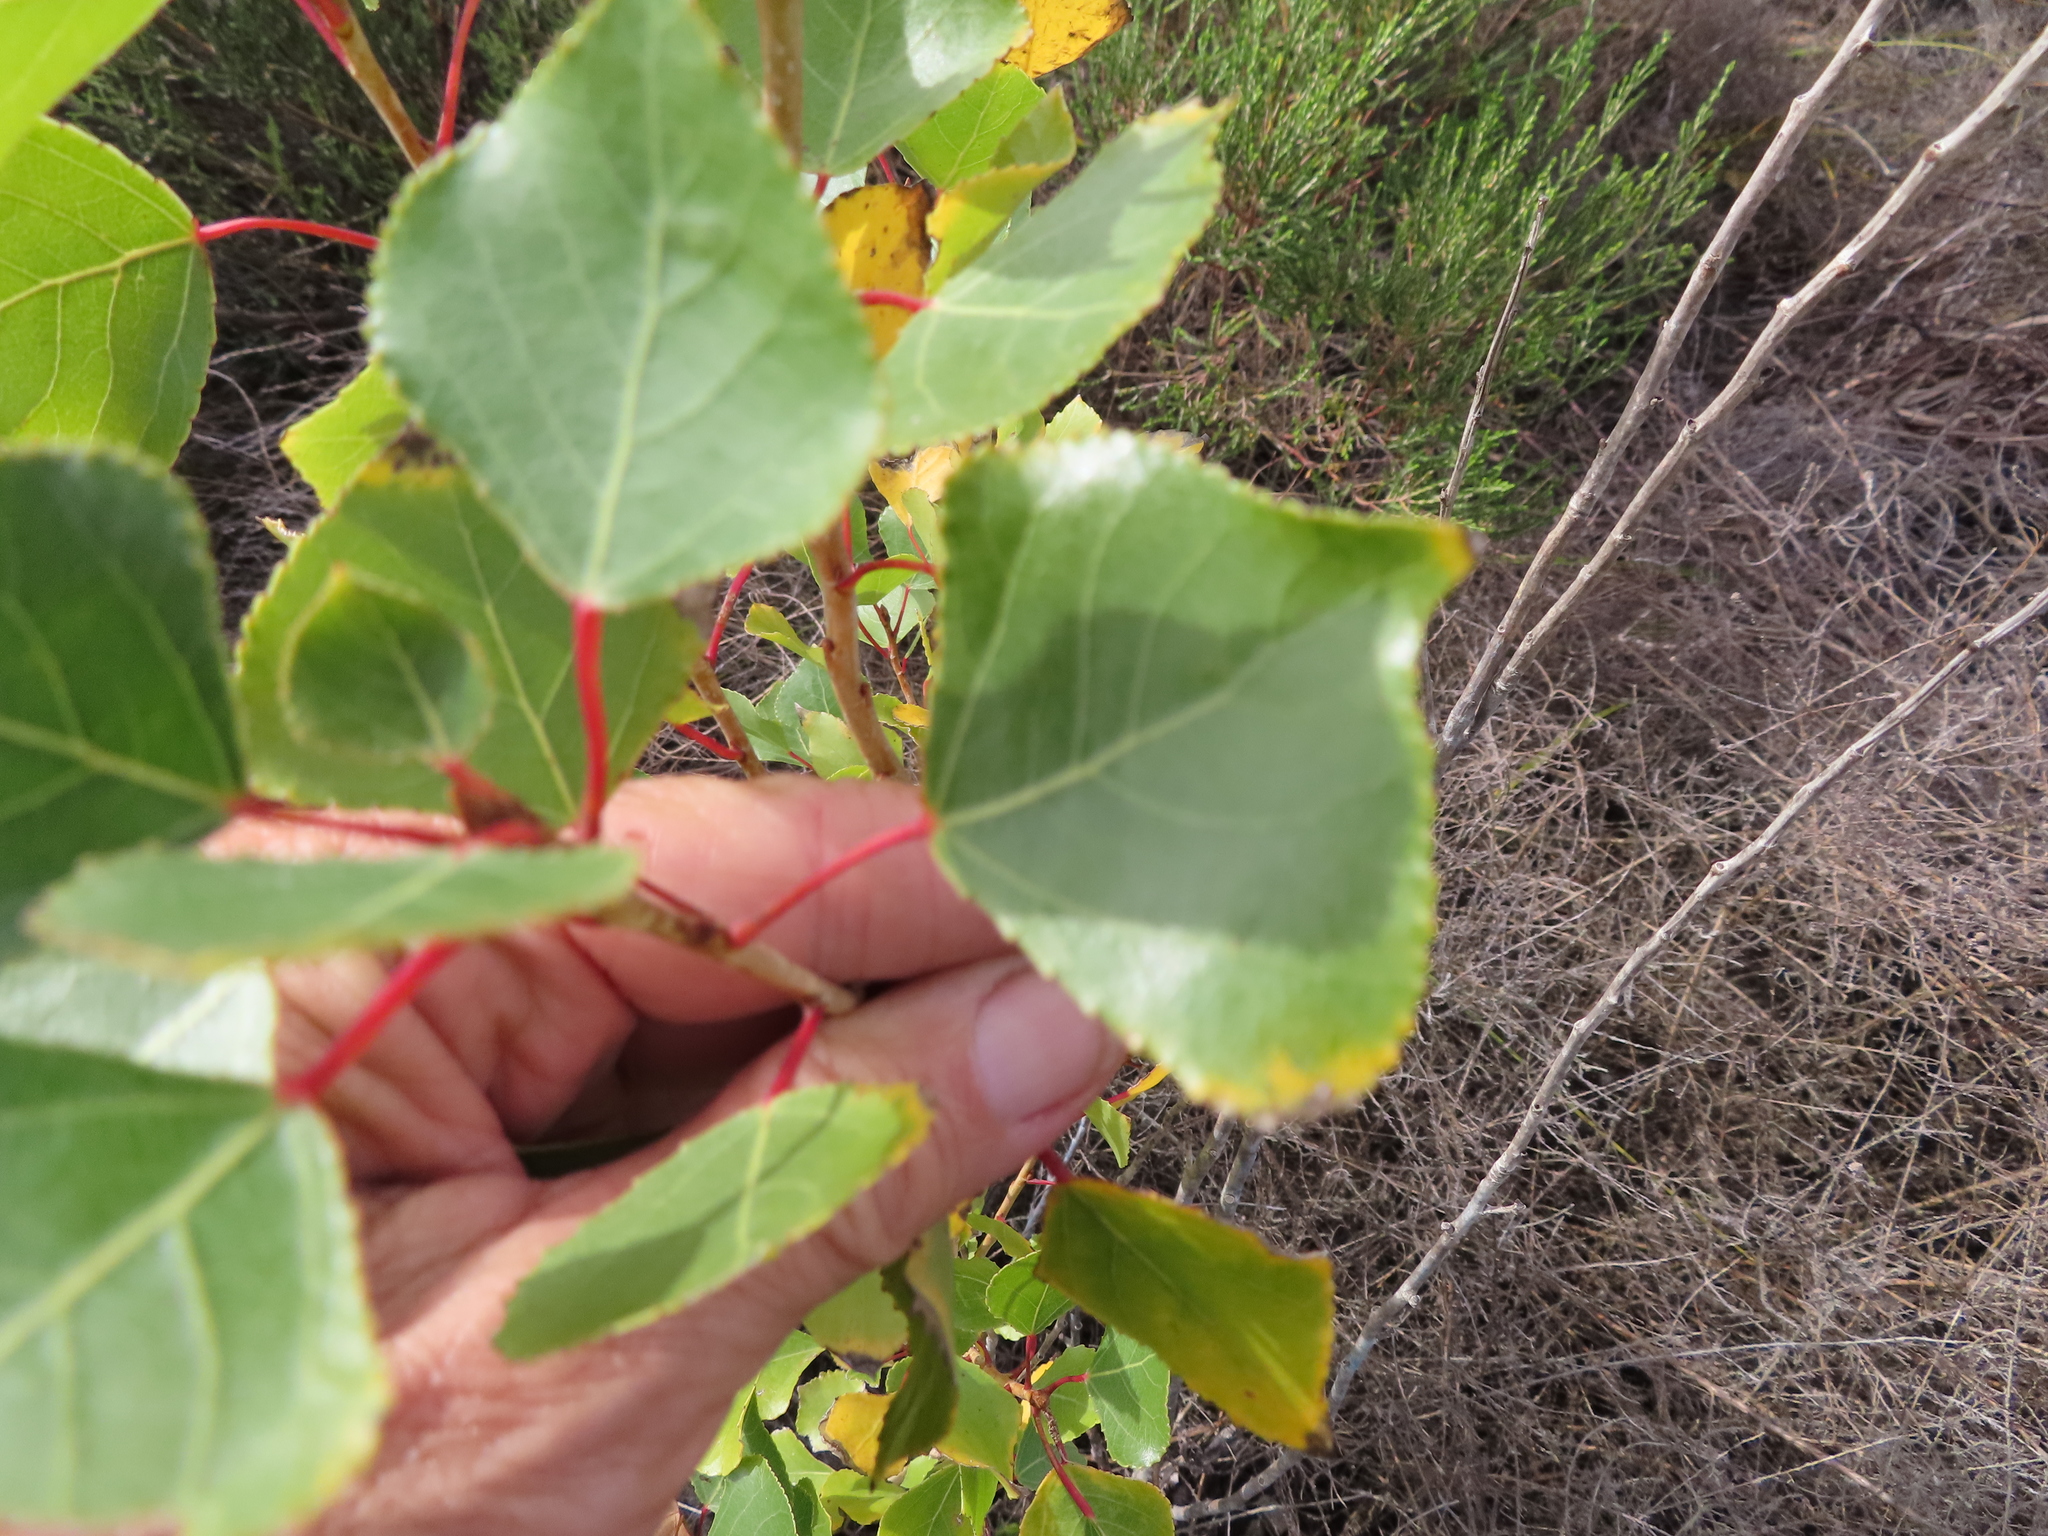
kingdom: Plantae
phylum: Tracheophyta
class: Magnoliopsida
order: Malpighiales
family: Salicaceae
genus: Populus
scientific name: Populus deltoides
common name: Eastern cottonwood
